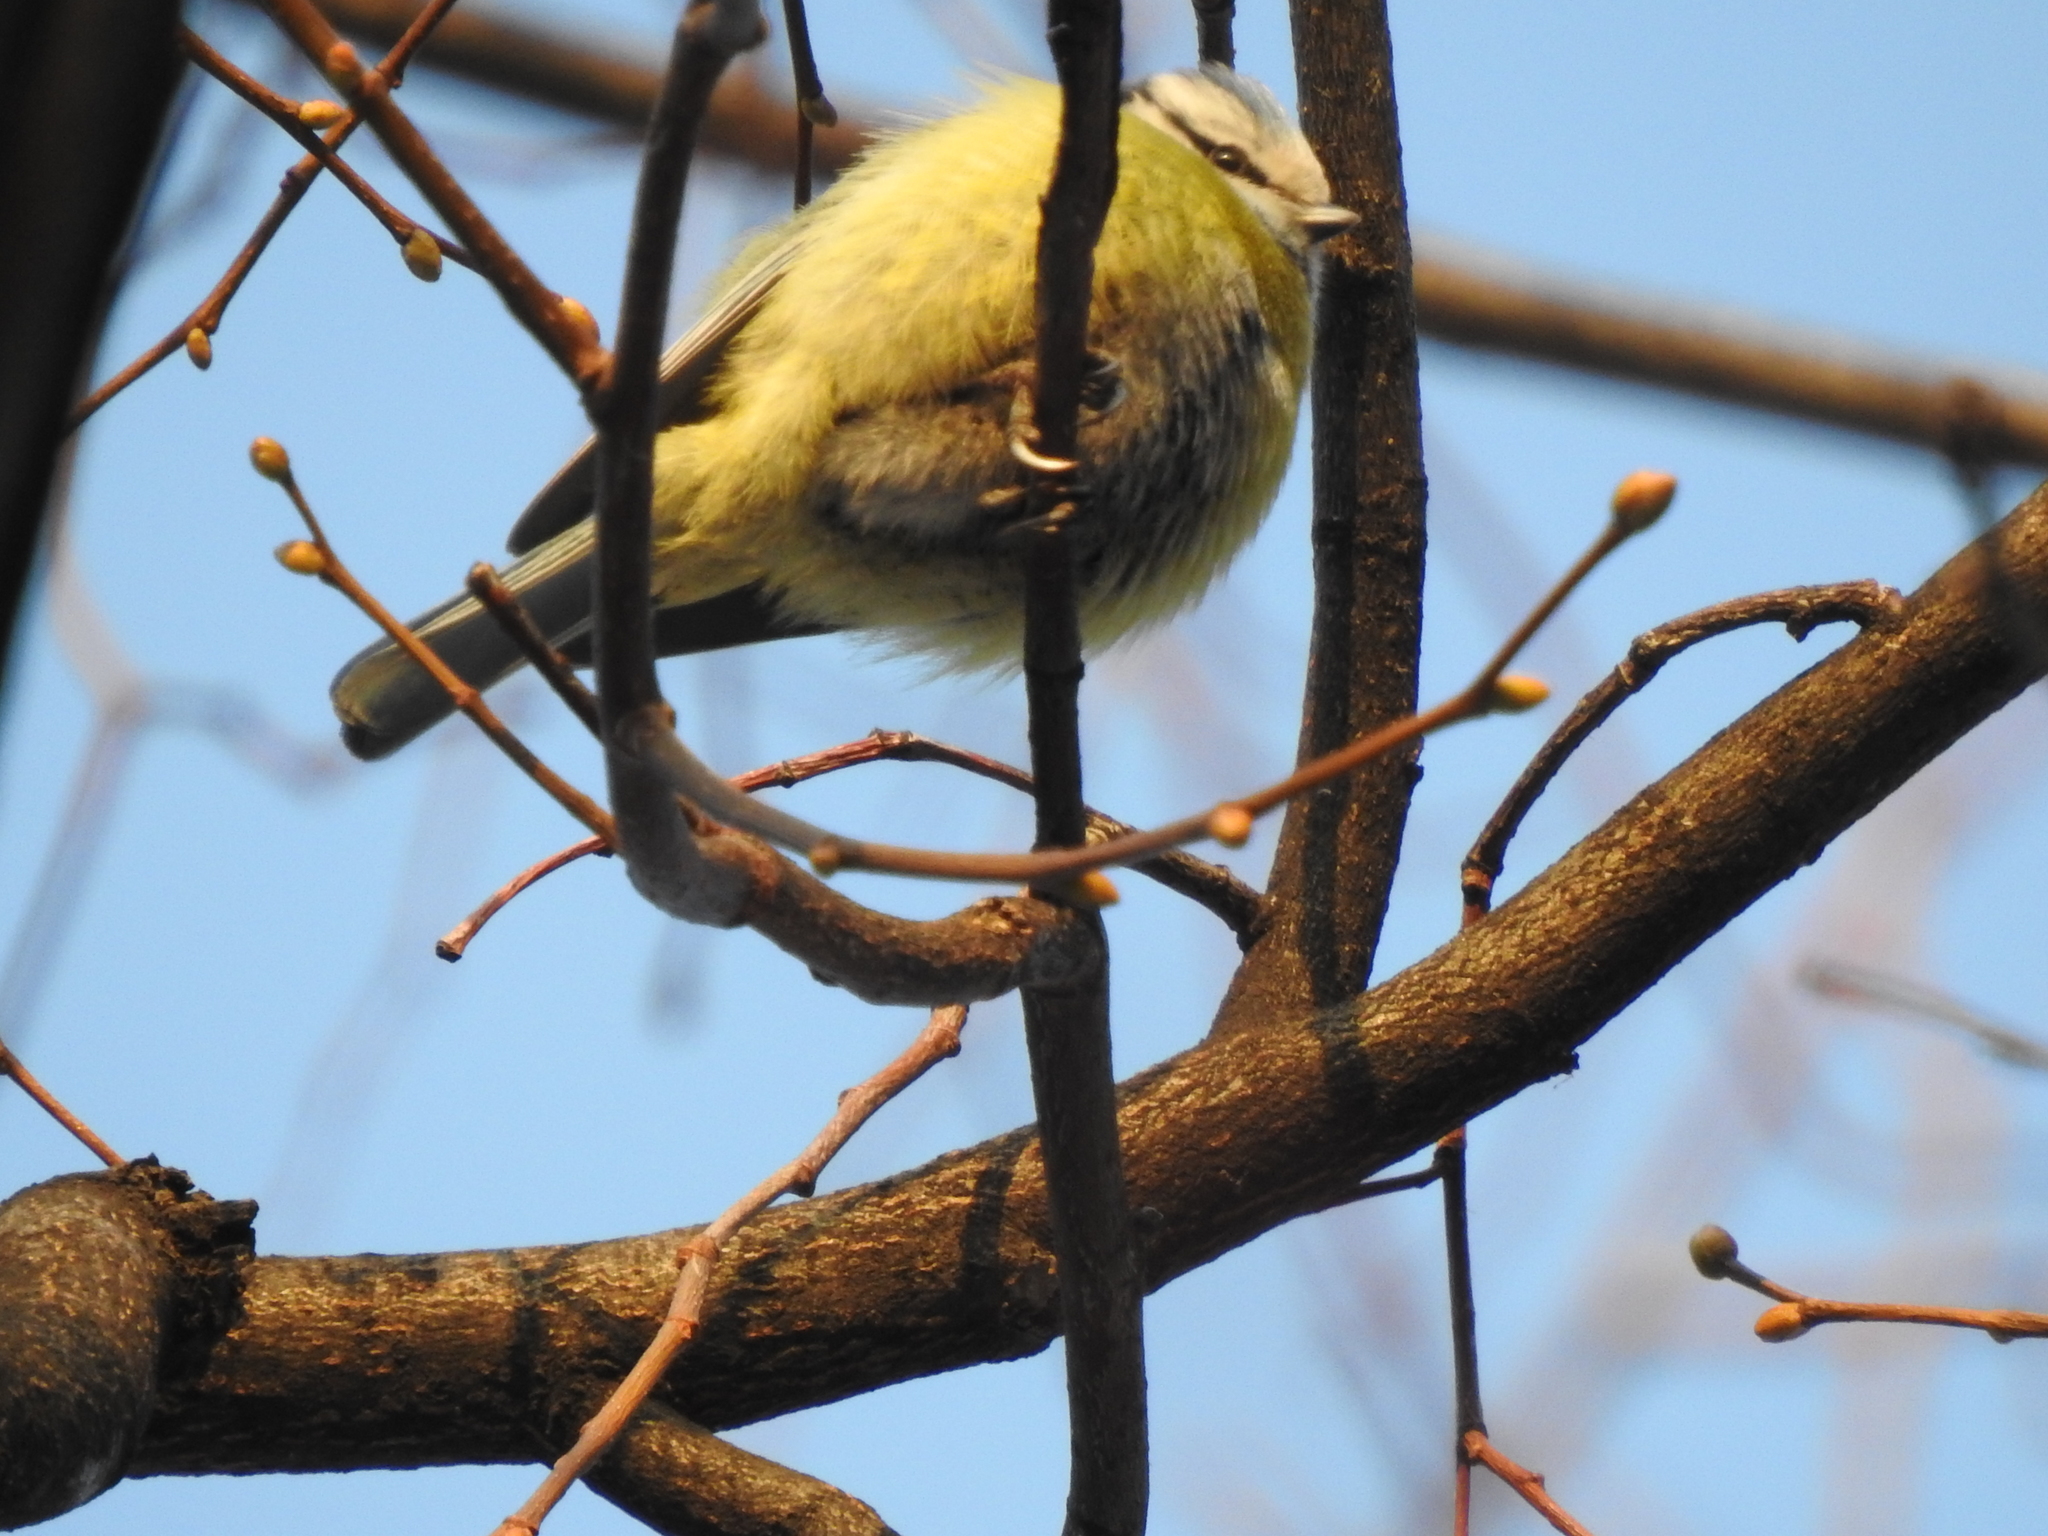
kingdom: Animalia
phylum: Chordata
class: Aves
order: Passeriformes
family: Paridae
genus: Cyanistes
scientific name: Cyanistes caeruleus
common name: Eurasian blue tit
